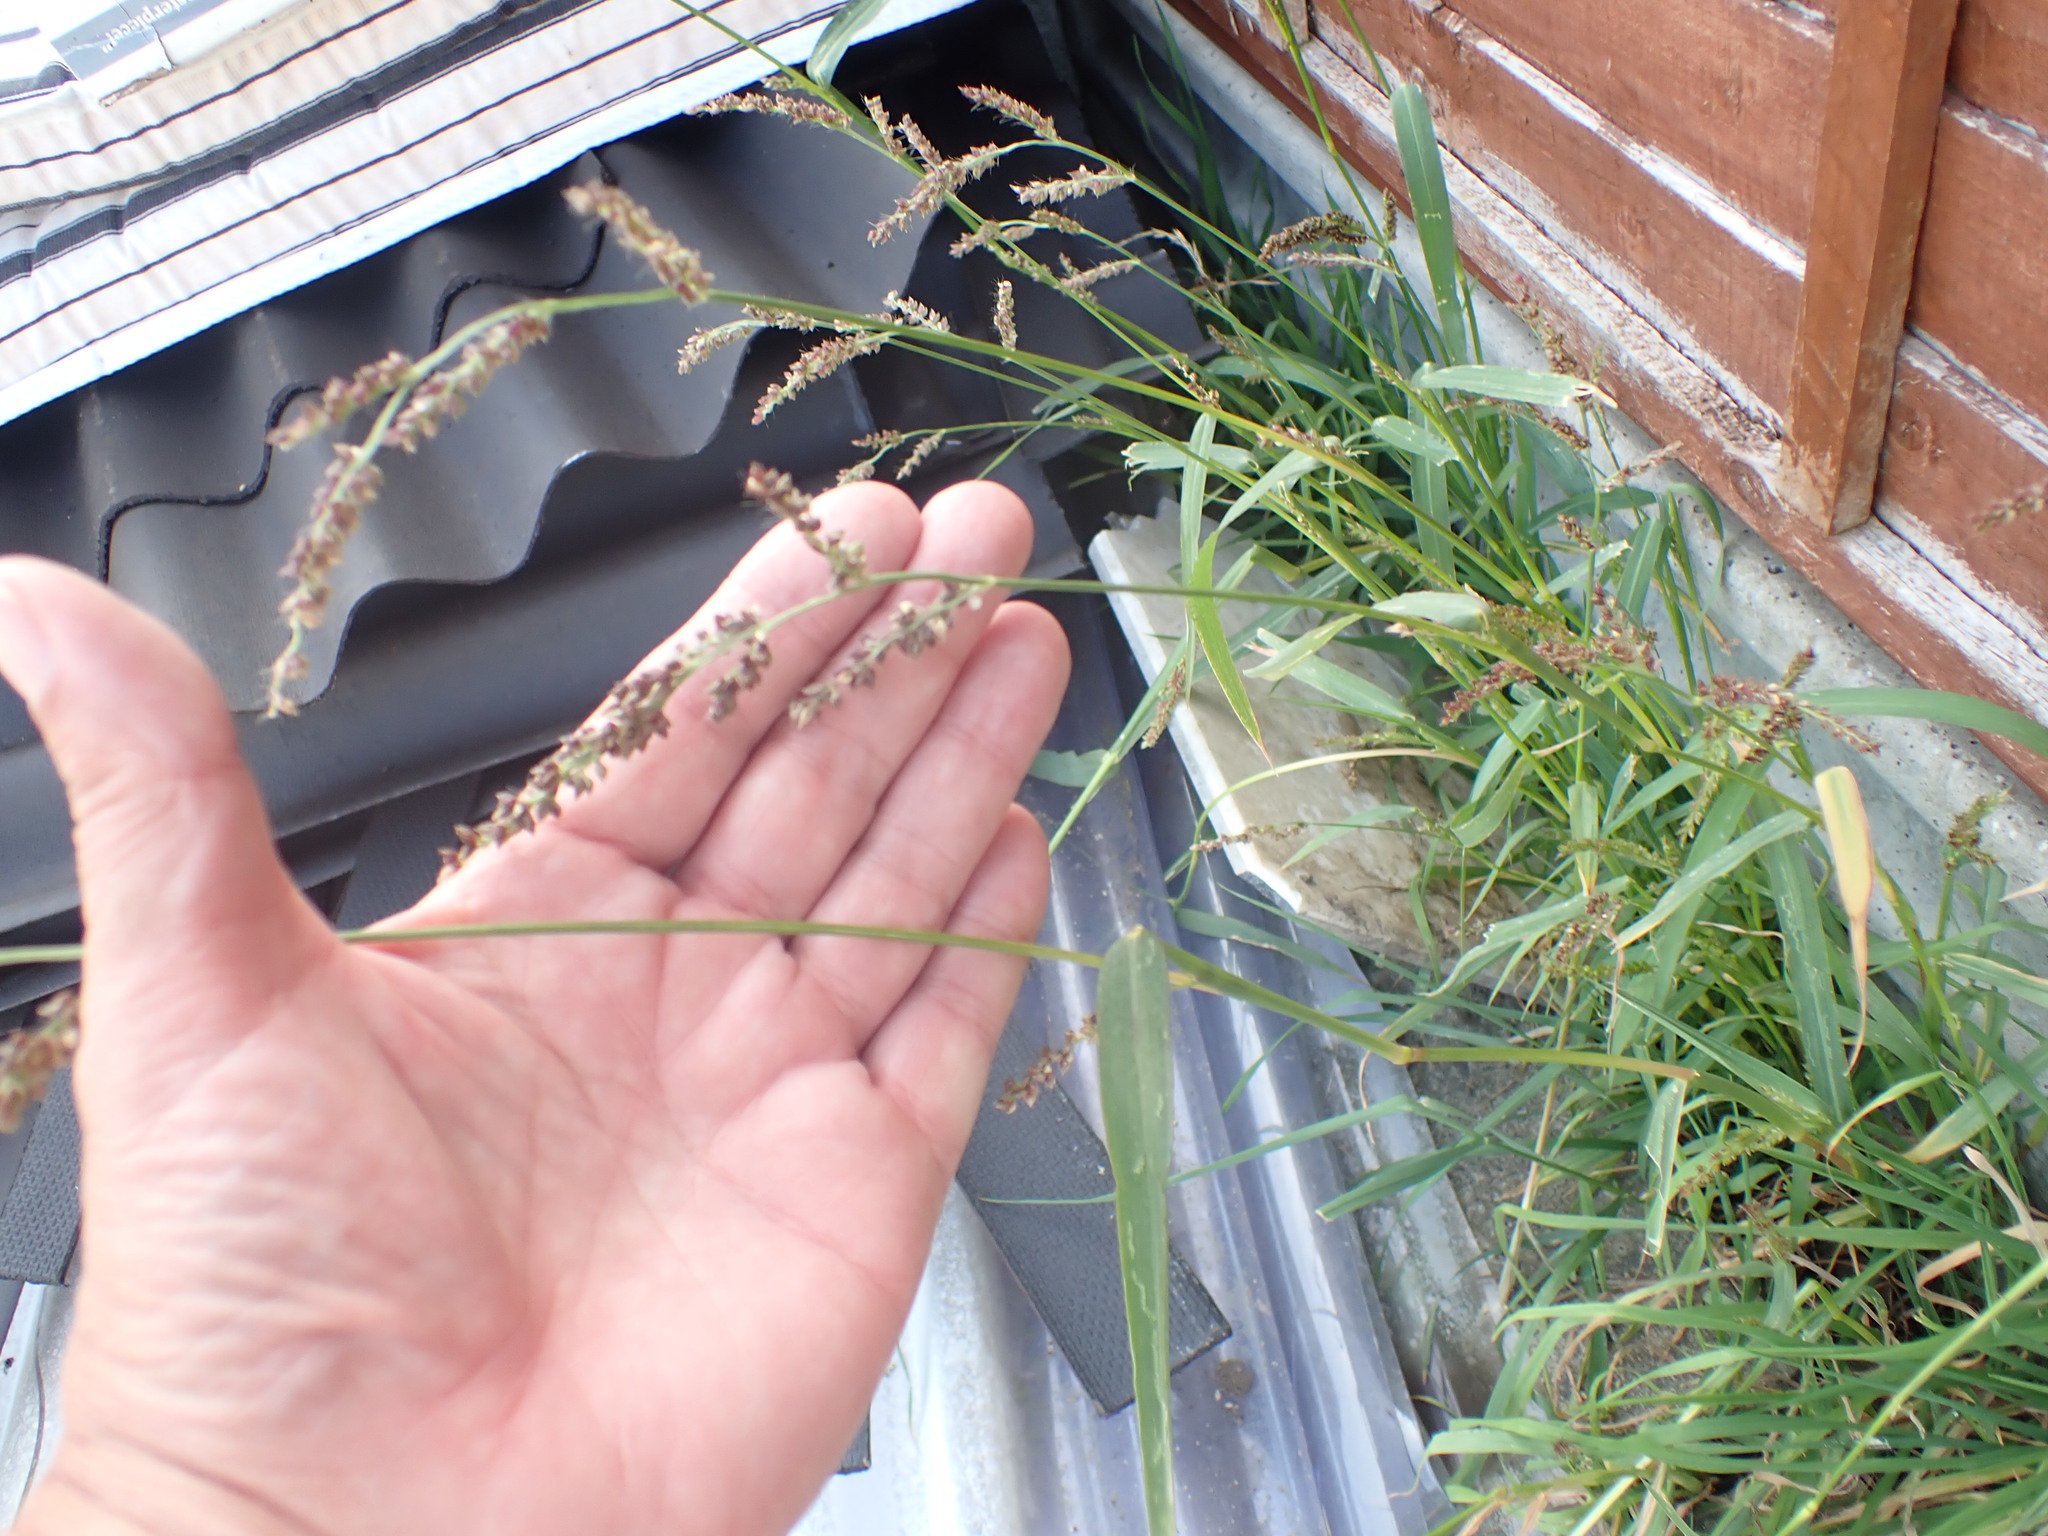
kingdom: Plantae
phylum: Tracheophyta
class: Liliopsida
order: Poales
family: Poaceae
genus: Echinochloa
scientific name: Echinochloa crus-galli
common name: Cockspur
